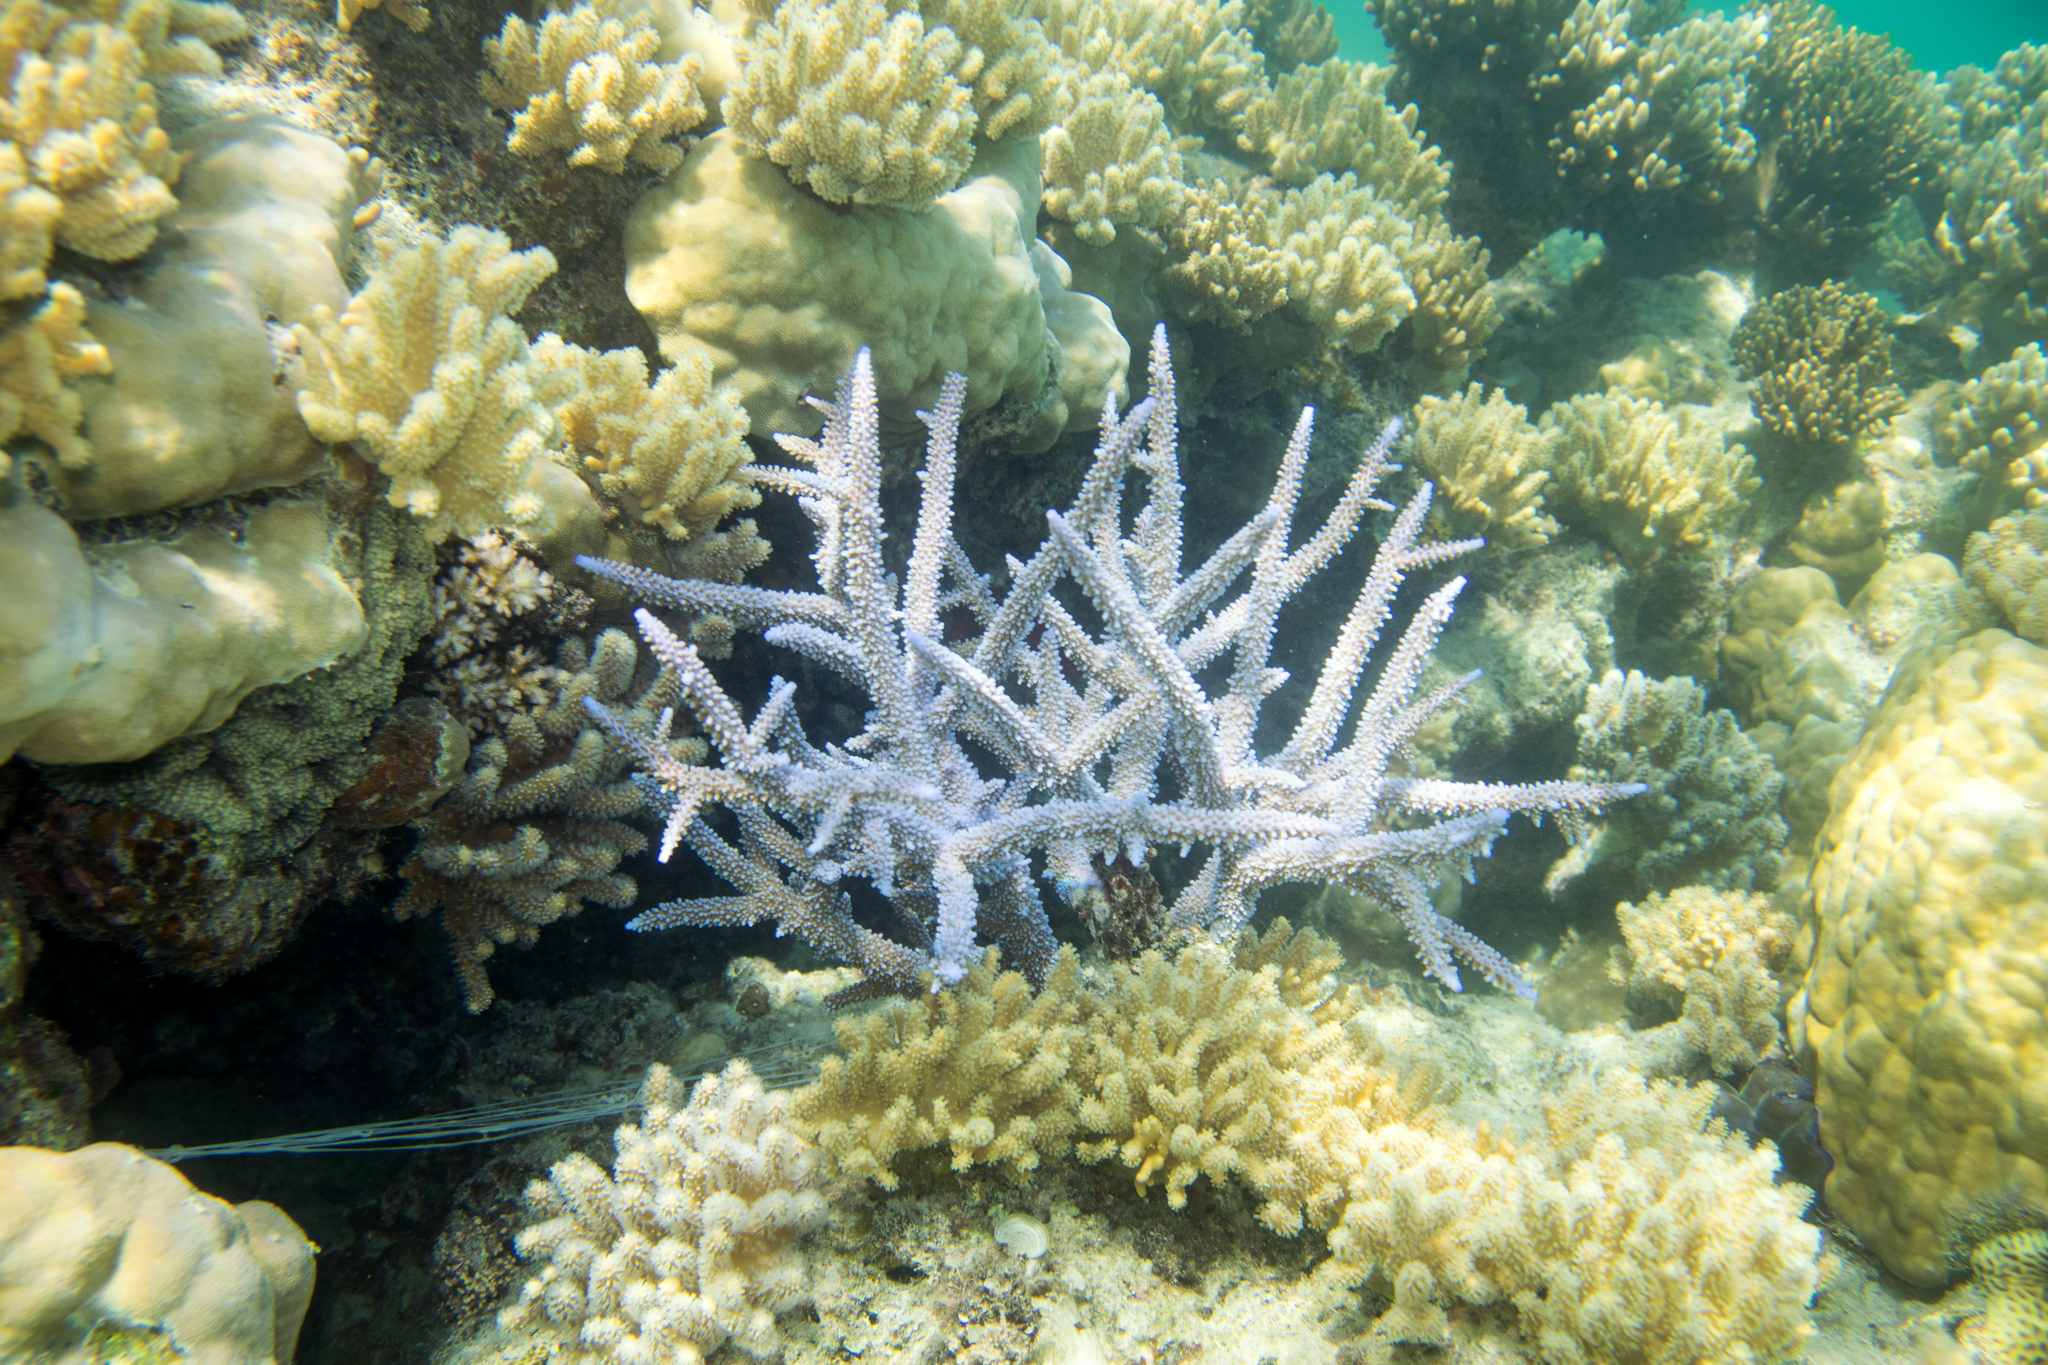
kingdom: Animalia
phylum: Cnidaria
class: Anthozoa
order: Scleractinia
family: Acroporidae
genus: Acropora
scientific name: Acropora intermedia
